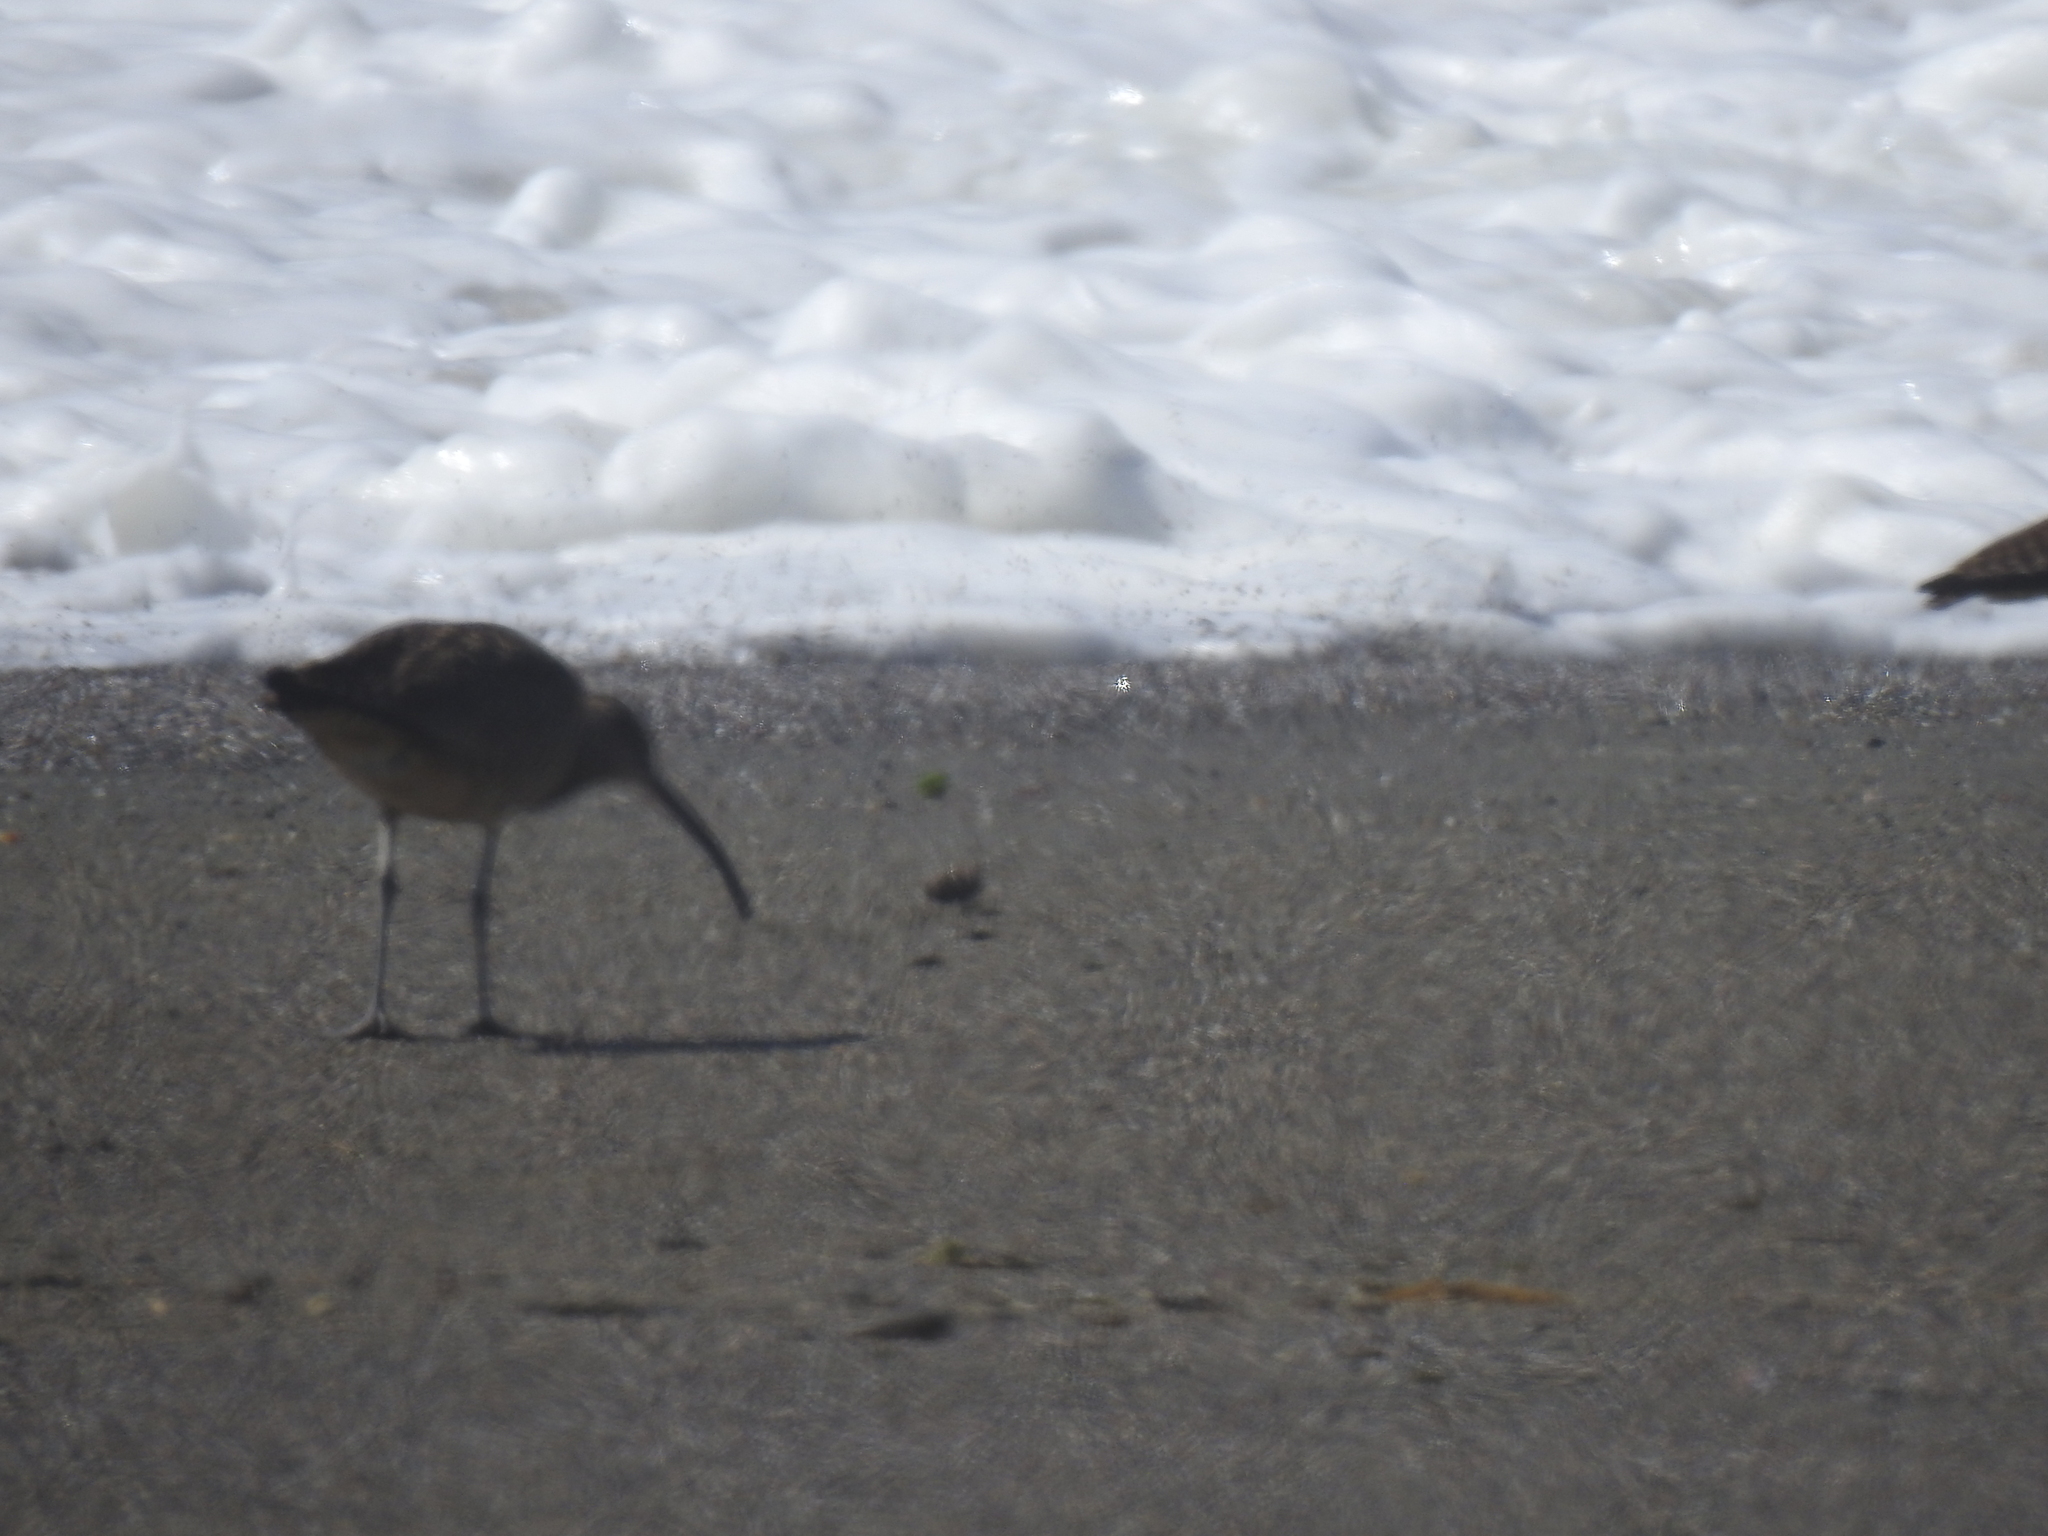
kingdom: Animalia
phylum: Chordata
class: Aves
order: Charadriiformes
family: Scolopacidae
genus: Numenius
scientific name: Numenius phaeopus
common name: Whimbrel
